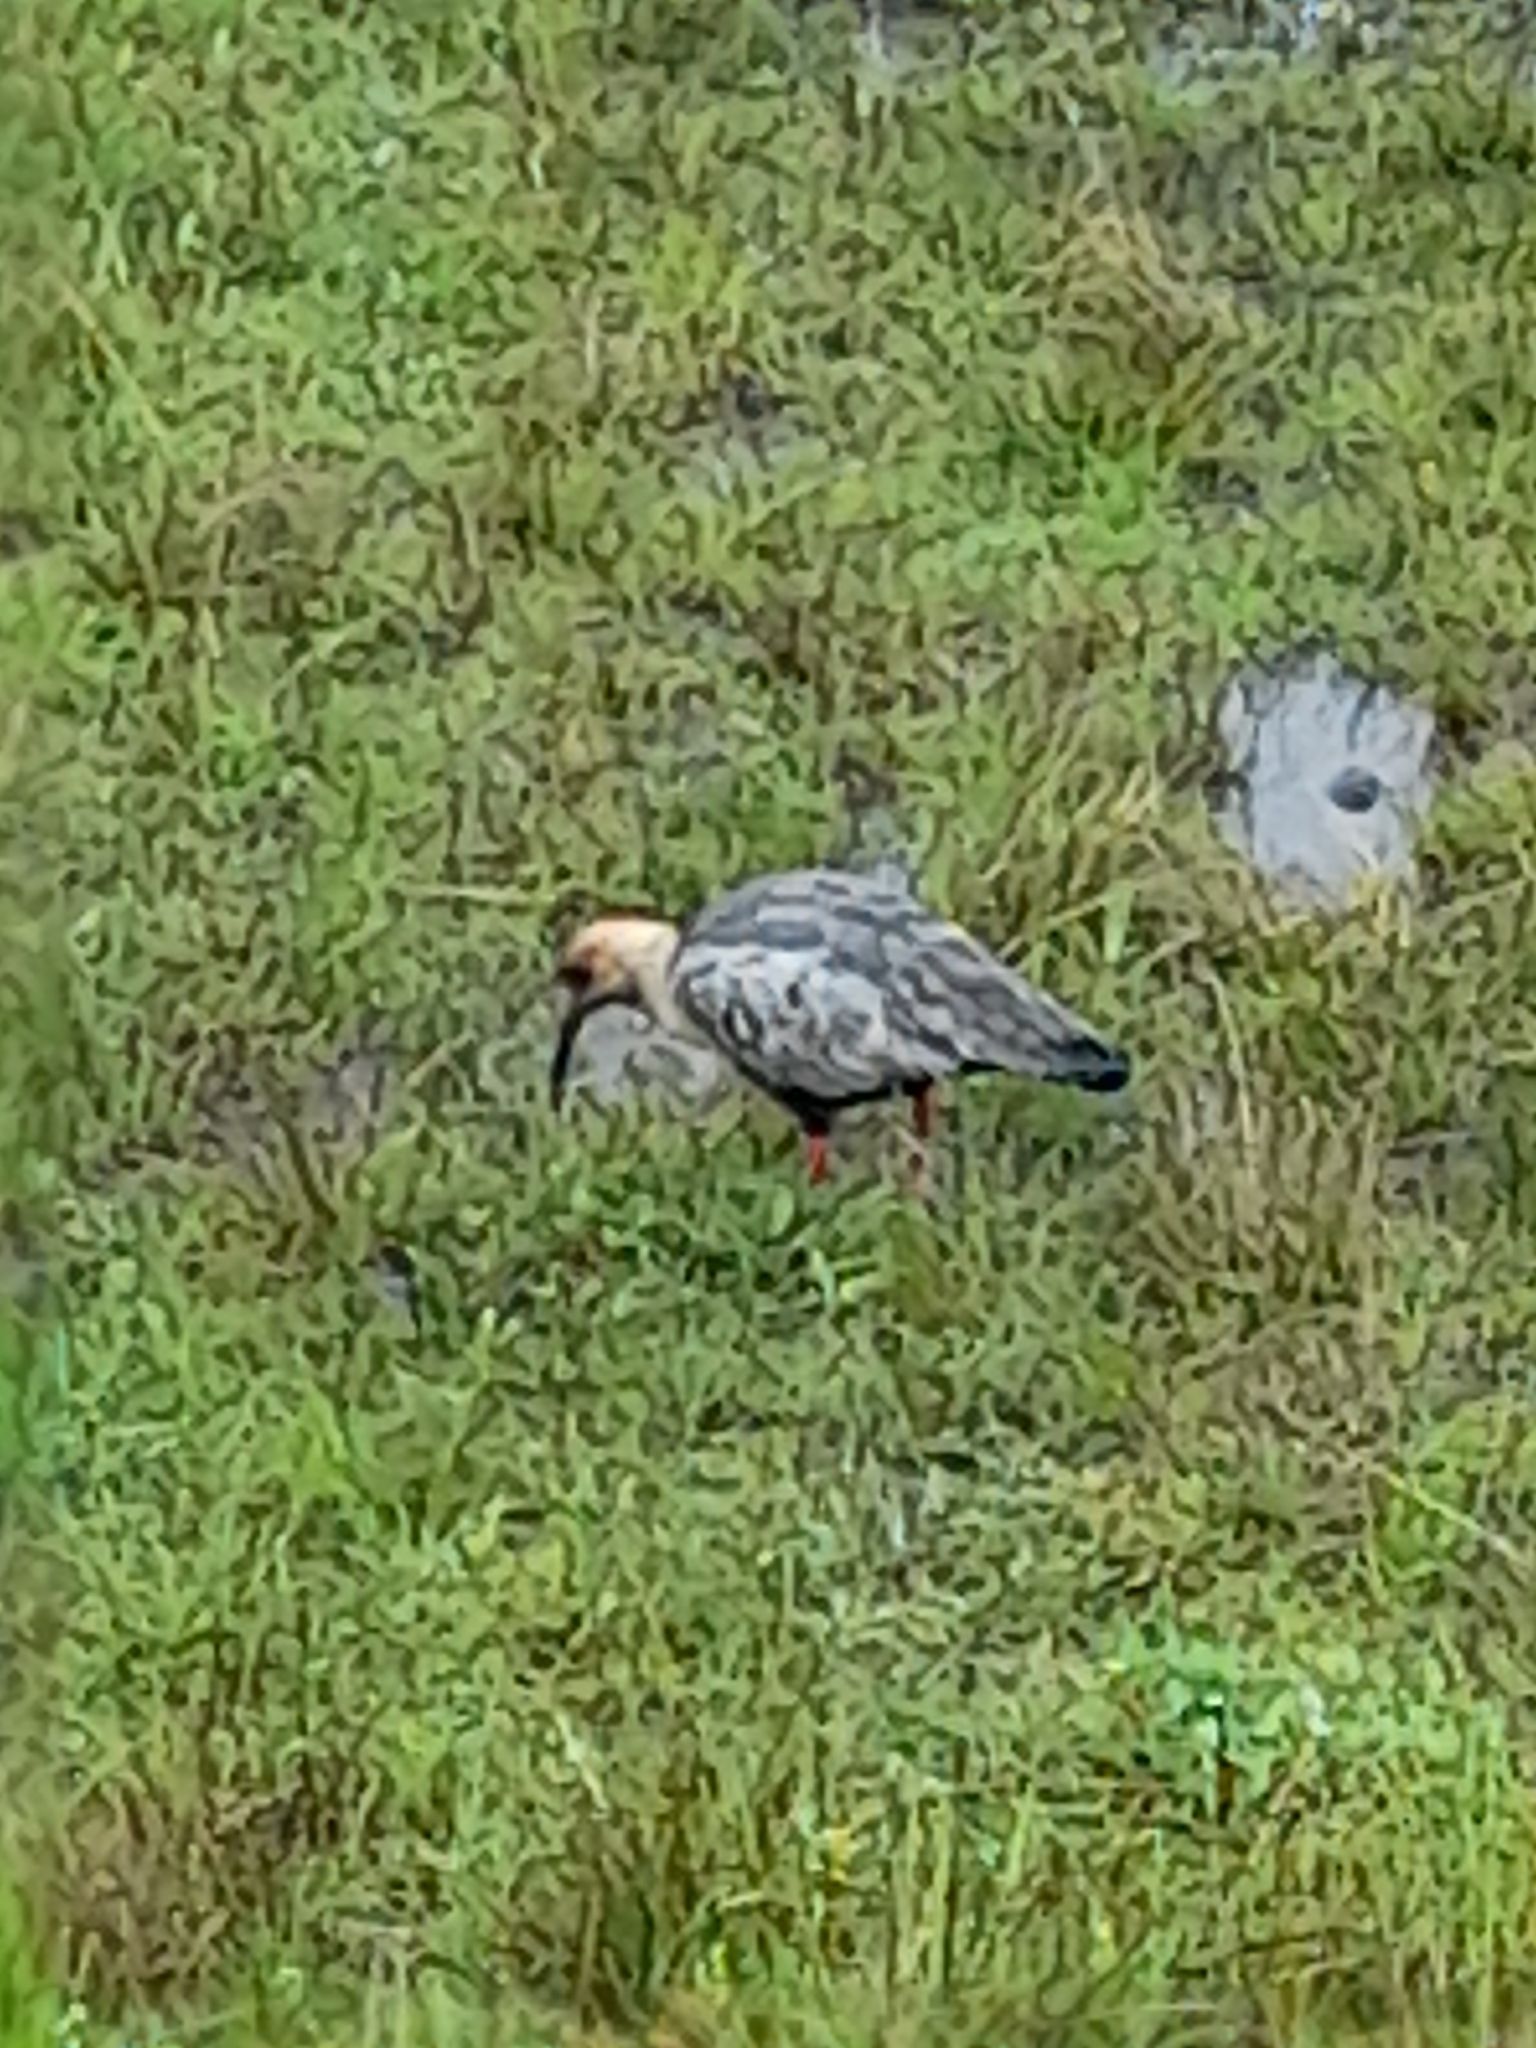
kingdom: Animalia
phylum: Chordata
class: Aves
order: Pelecaniformes
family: Threskiornithidae
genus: Theristicus
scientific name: Theristicus melanopis
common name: Black-faced ibis
